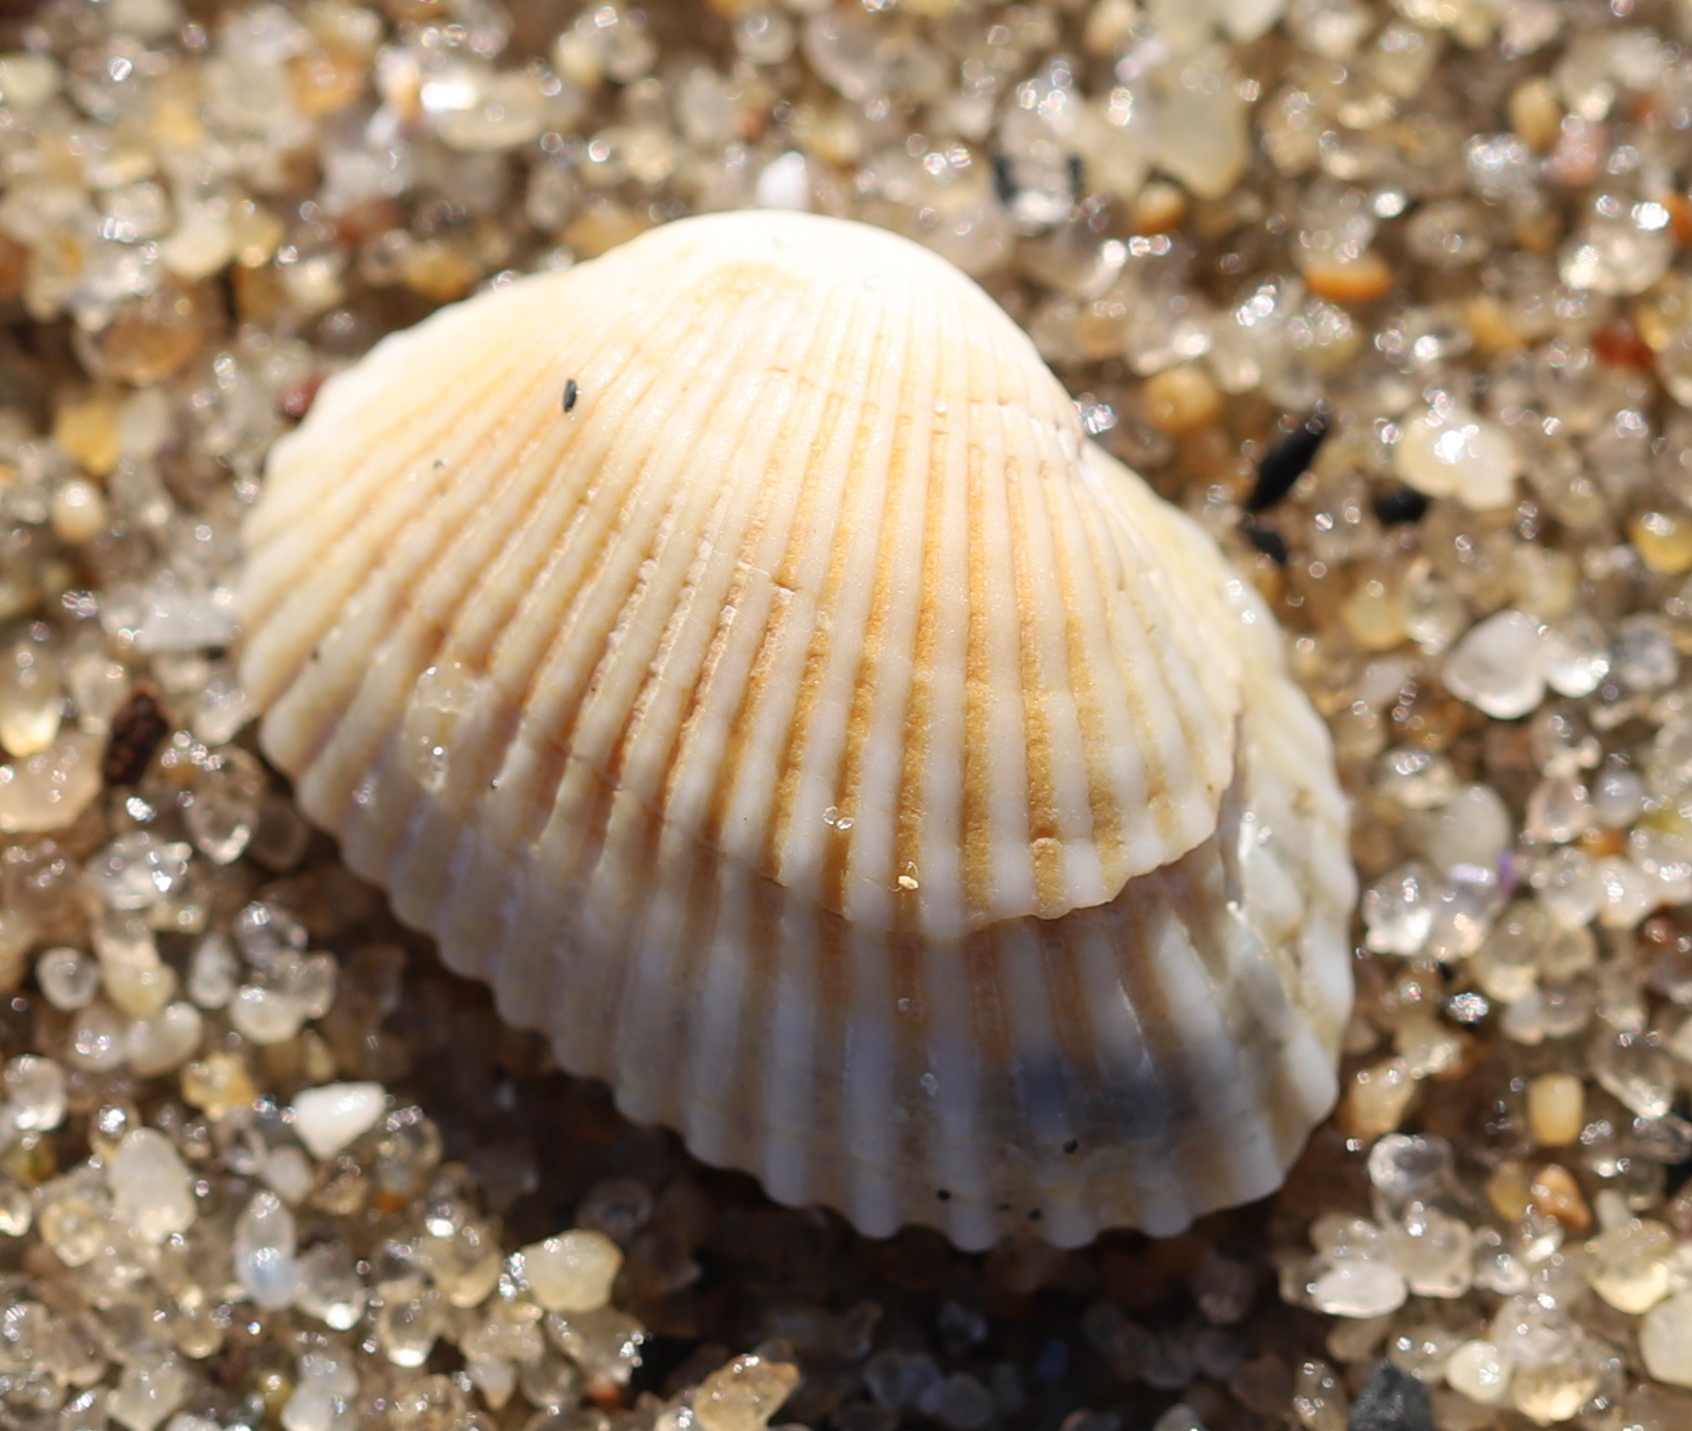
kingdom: Animalia
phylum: Mollusca
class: Bivalvia
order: Arcida
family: Arcidae
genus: Anadara
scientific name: Anadara transversa
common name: Transverse ark
